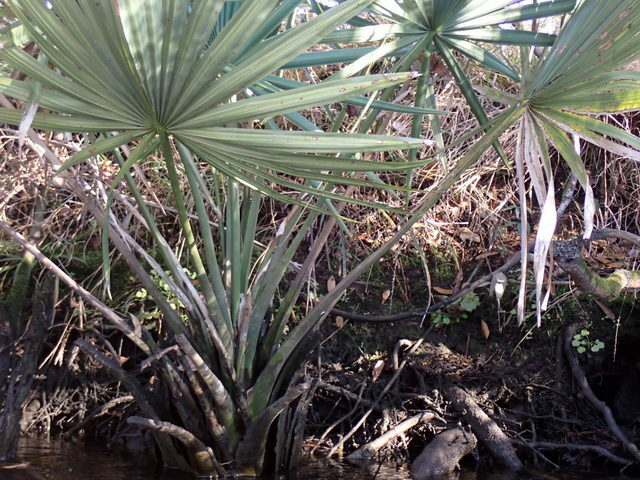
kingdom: Plantae
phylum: Tracheophyta
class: Liliopsida
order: Arecales
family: Arecaceae
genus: Sabal
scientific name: Sabal minor
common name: Dwarf palmetto
